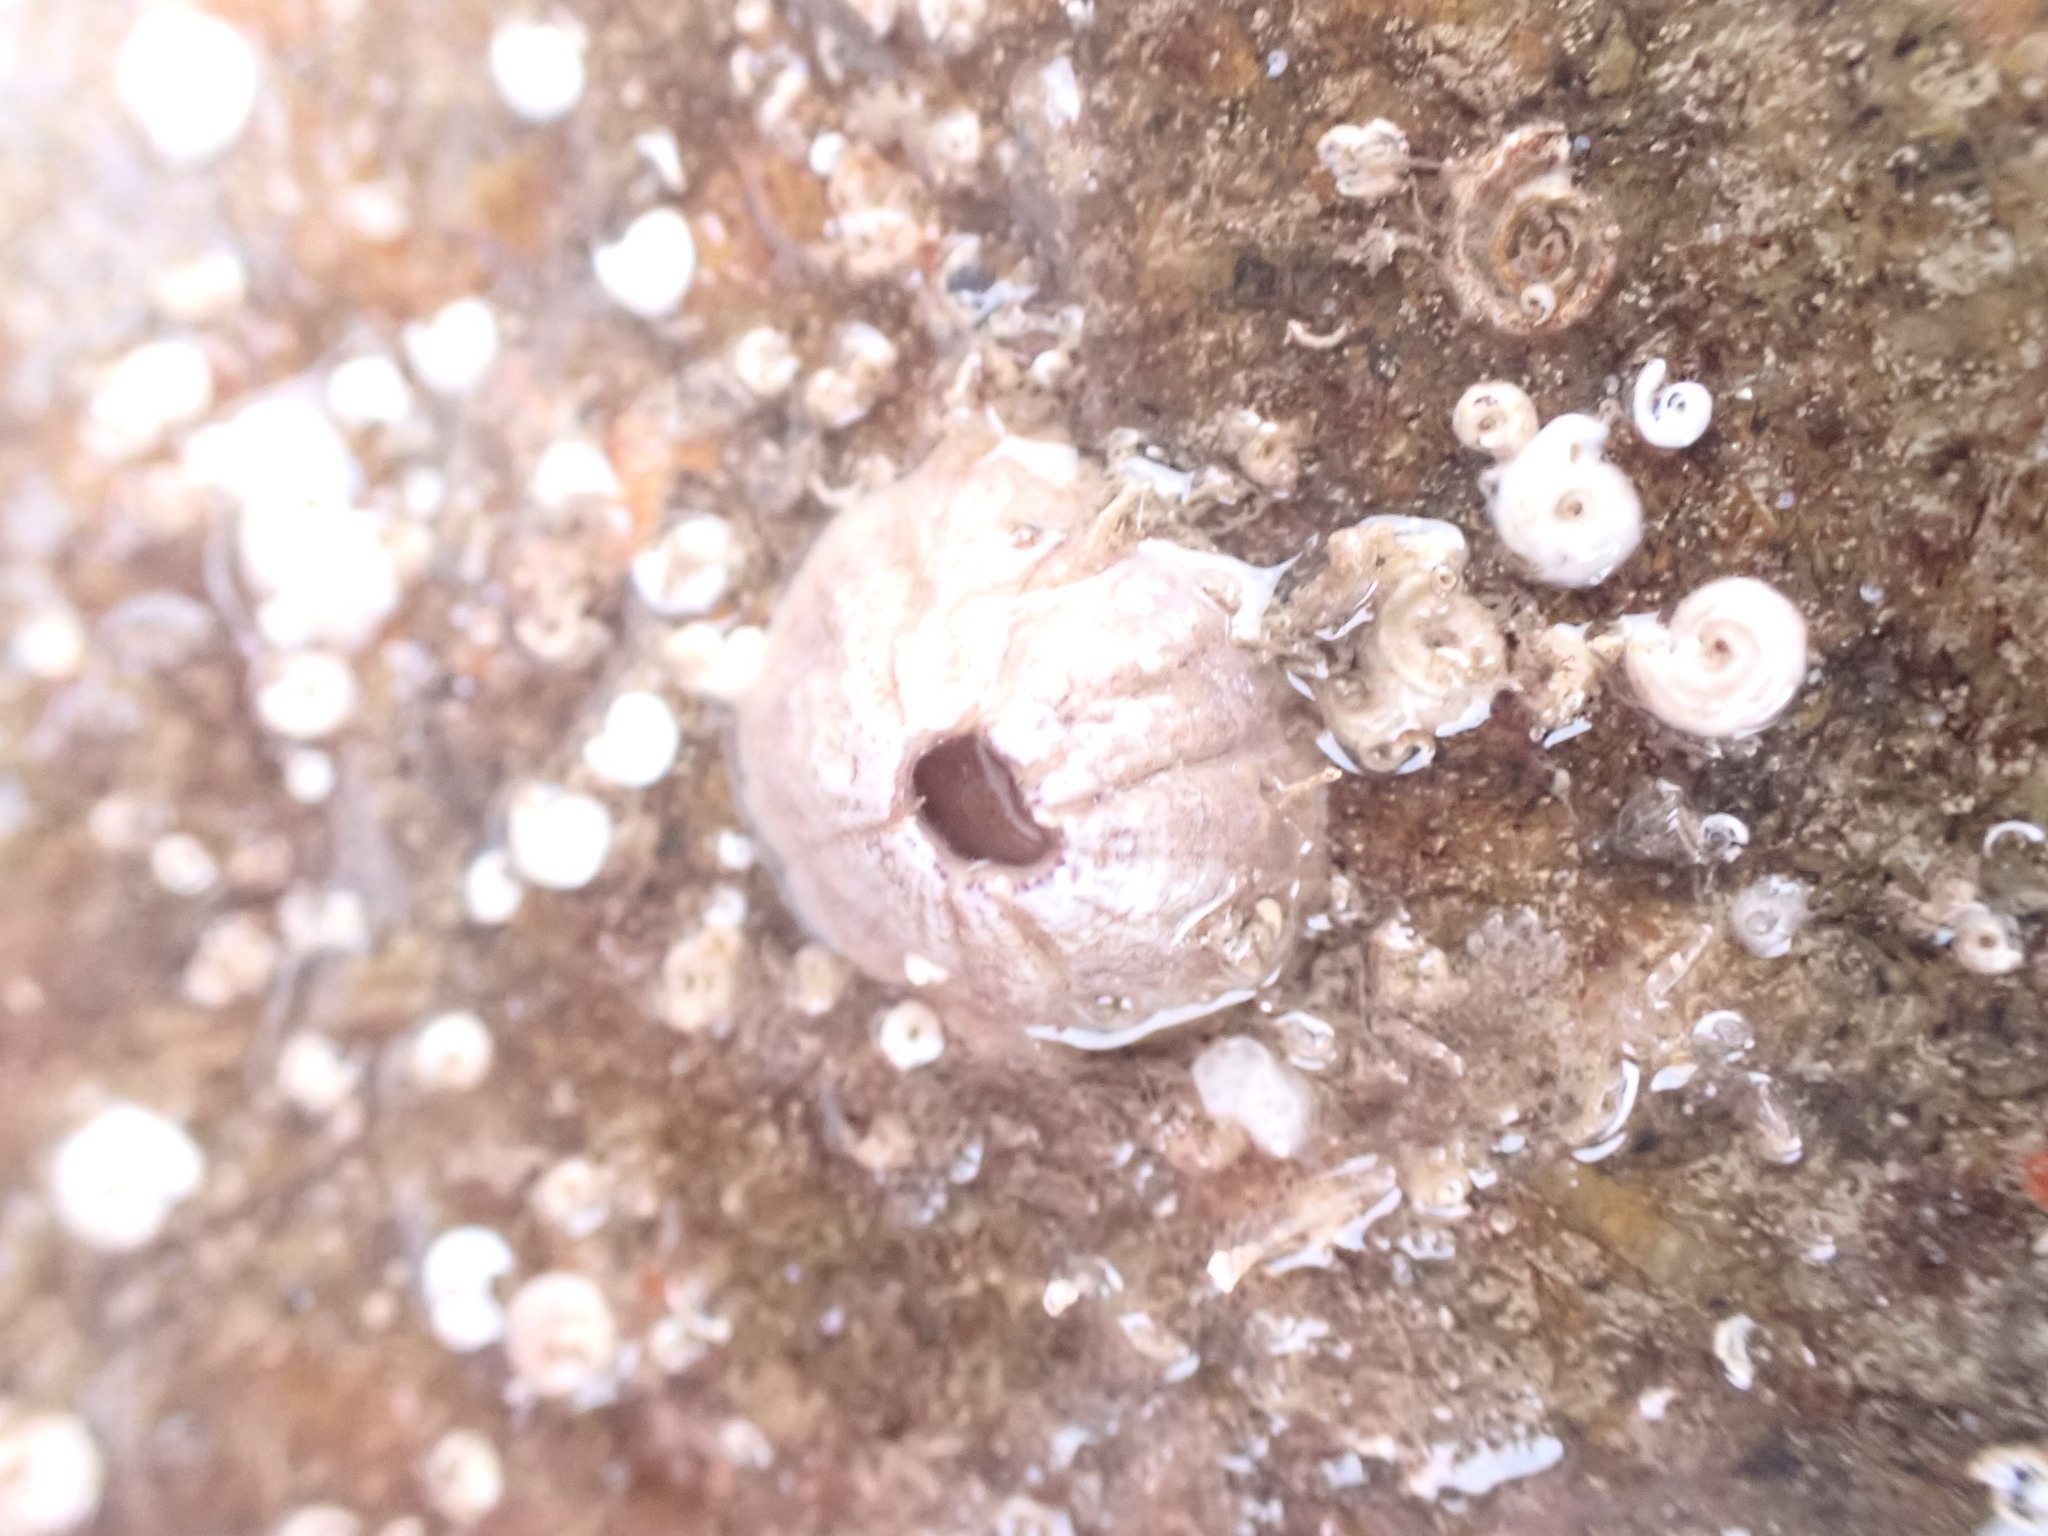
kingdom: Animalia
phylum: Arthropoda
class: Maxillopoda
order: Sessilia
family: Balanidae
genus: Perforatus
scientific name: Perforatus perforatus
